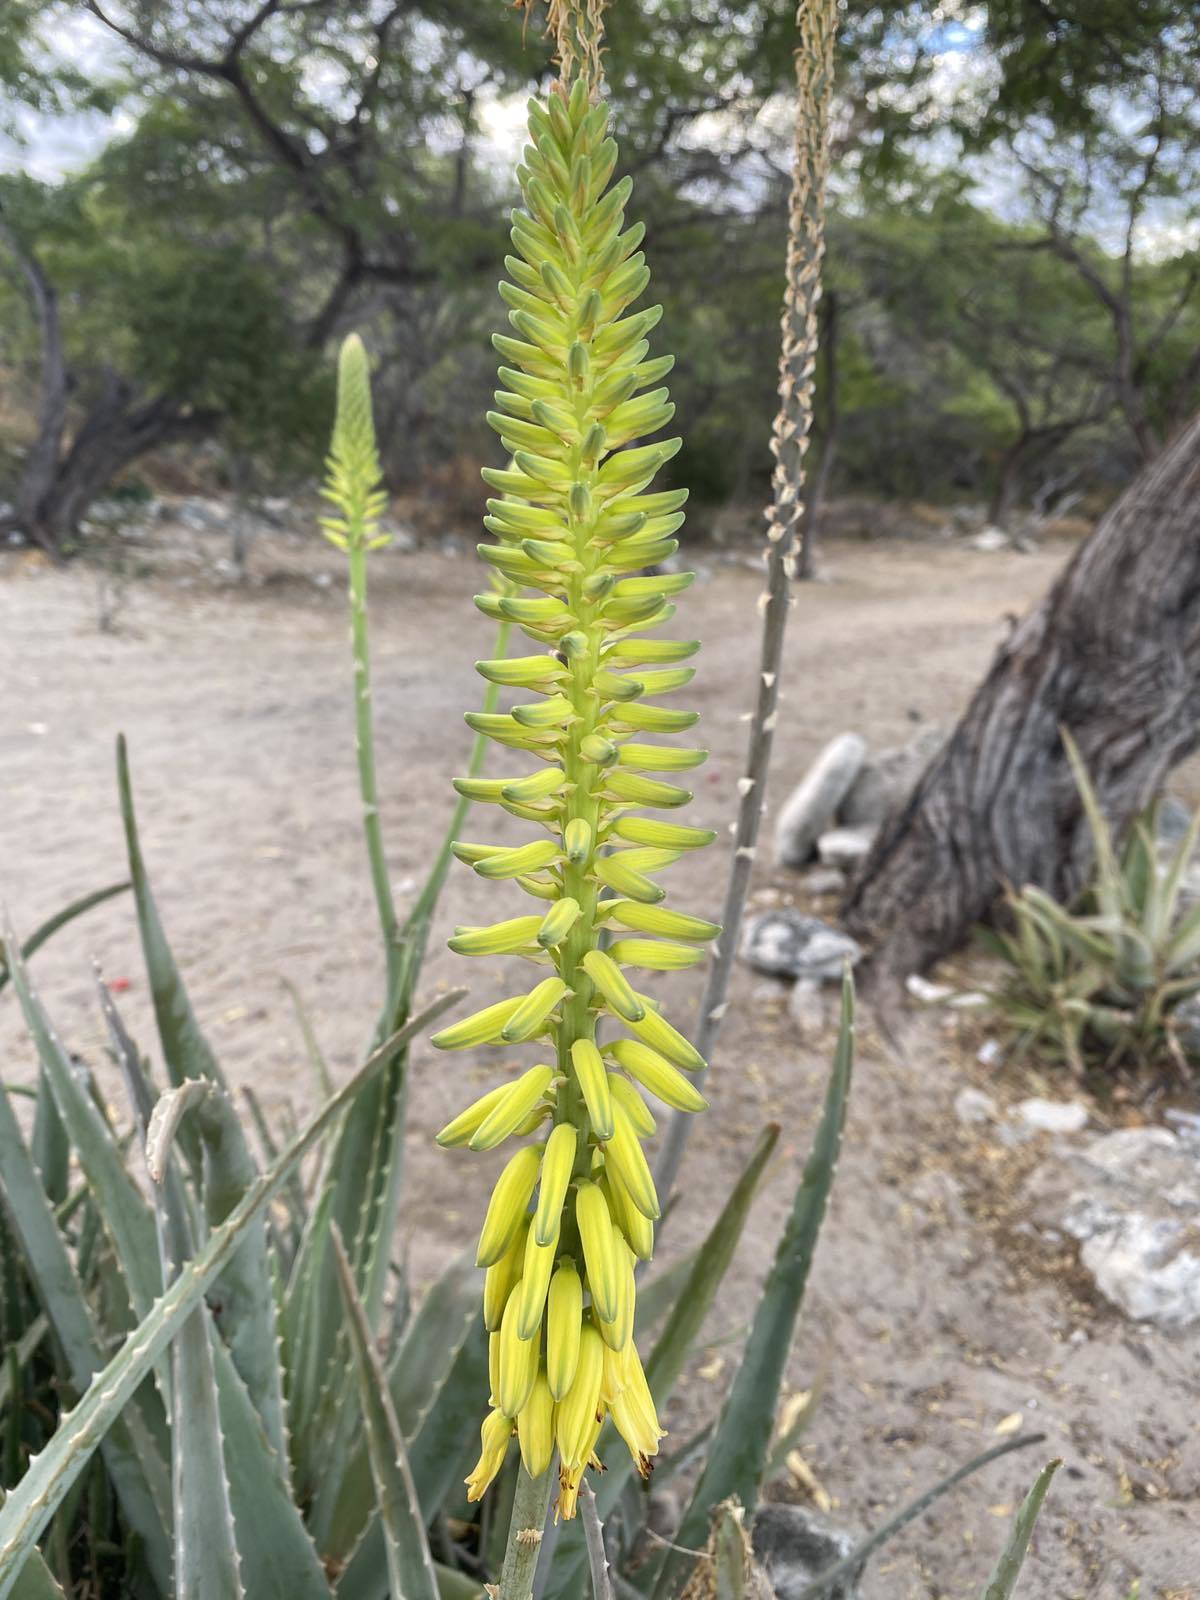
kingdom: Plantae
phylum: Tracheophyta
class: Liliopsida
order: Asparagales
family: Asphodelaceae
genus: Aloe
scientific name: Aloe vera
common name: Barbados aloe
